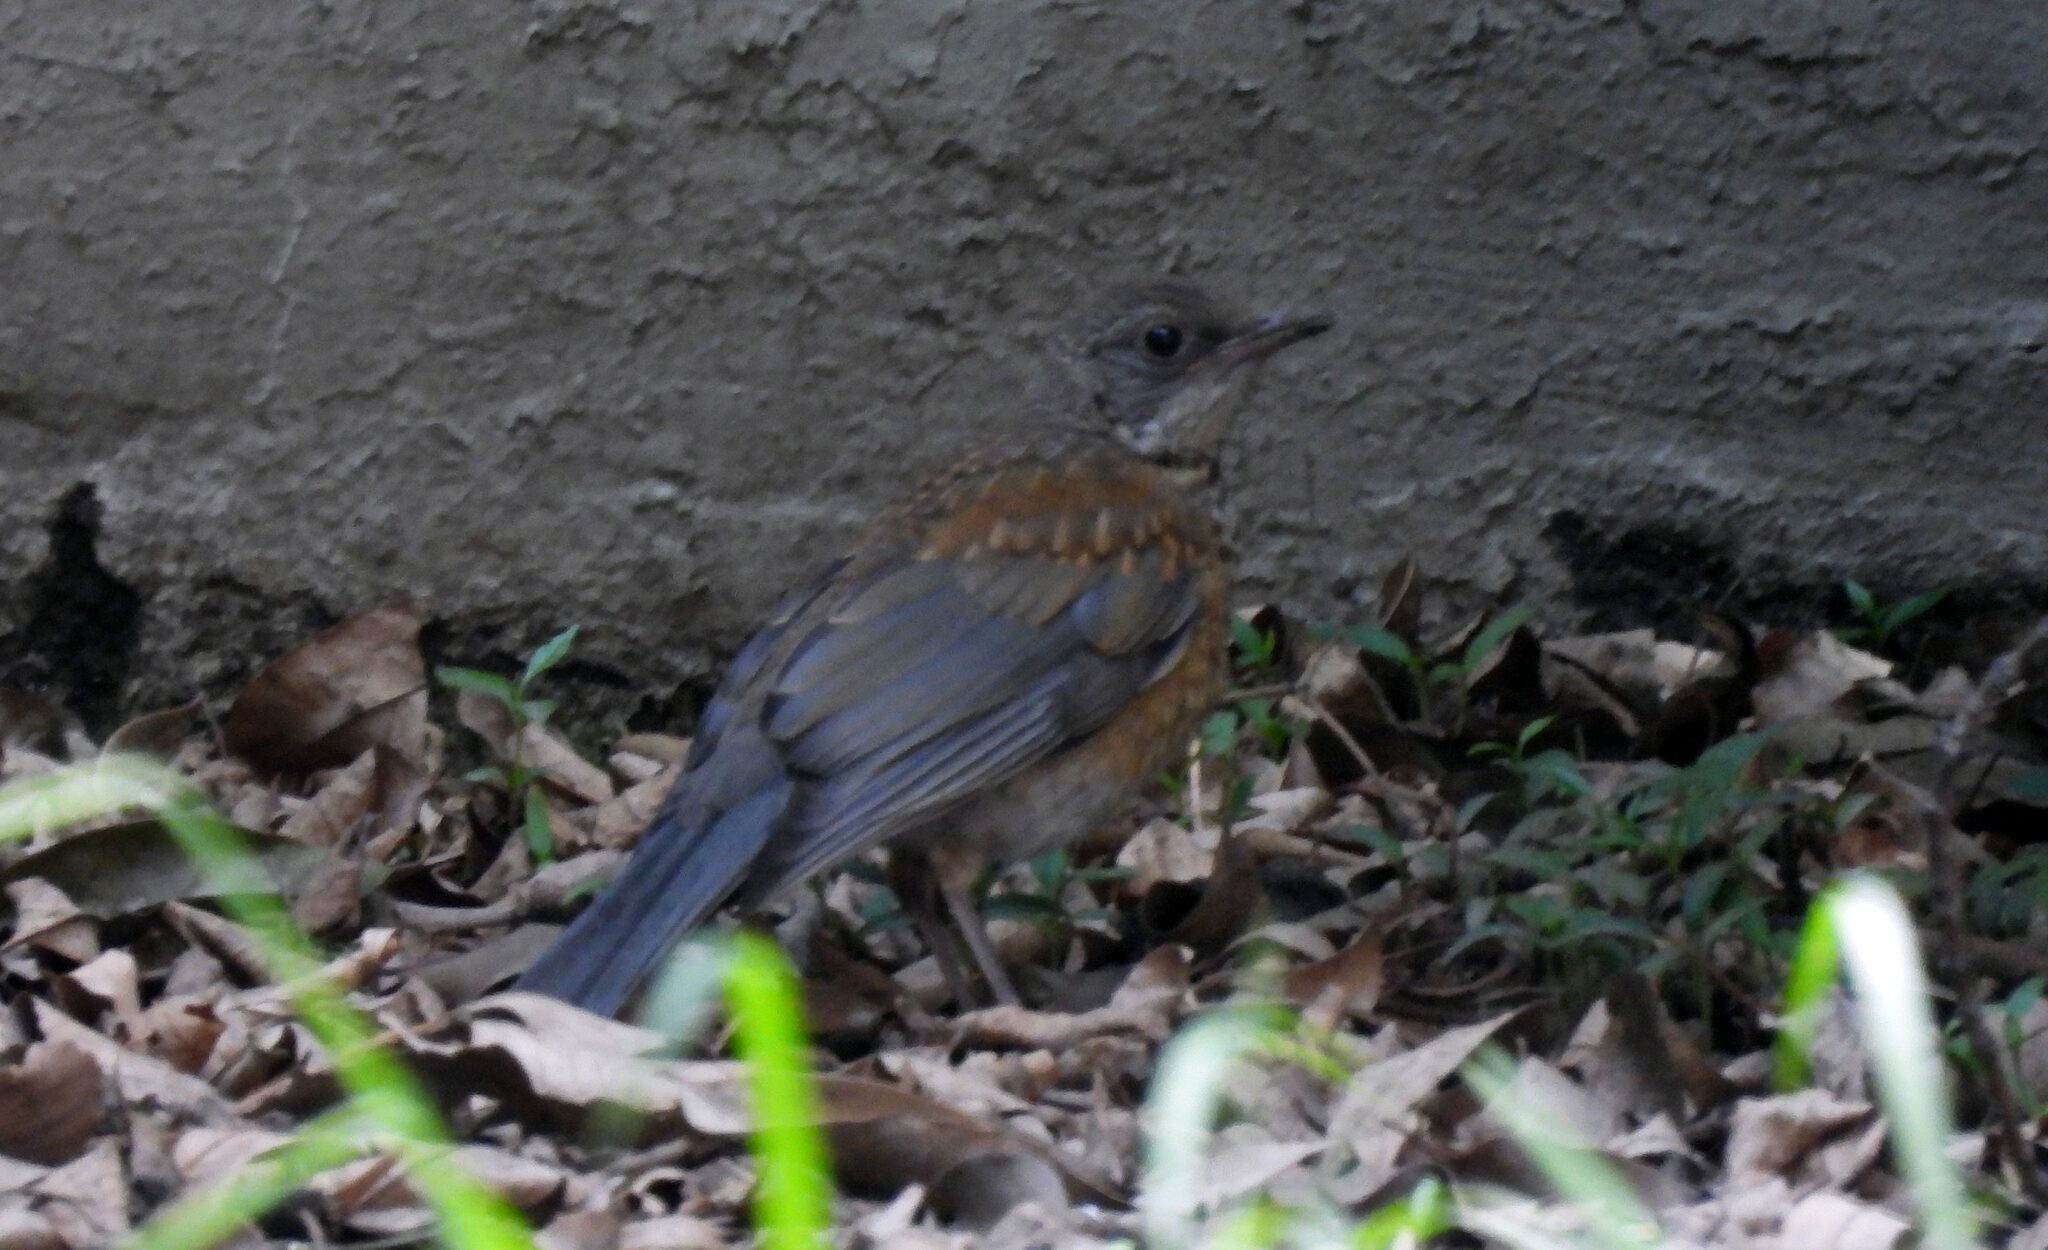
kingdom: Animalia
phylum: Chordata
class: Aves
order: Passeriformes
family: Turdidae
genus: Turdus
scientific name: Turdus rufopalliatus
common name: Rufous-backed robin
